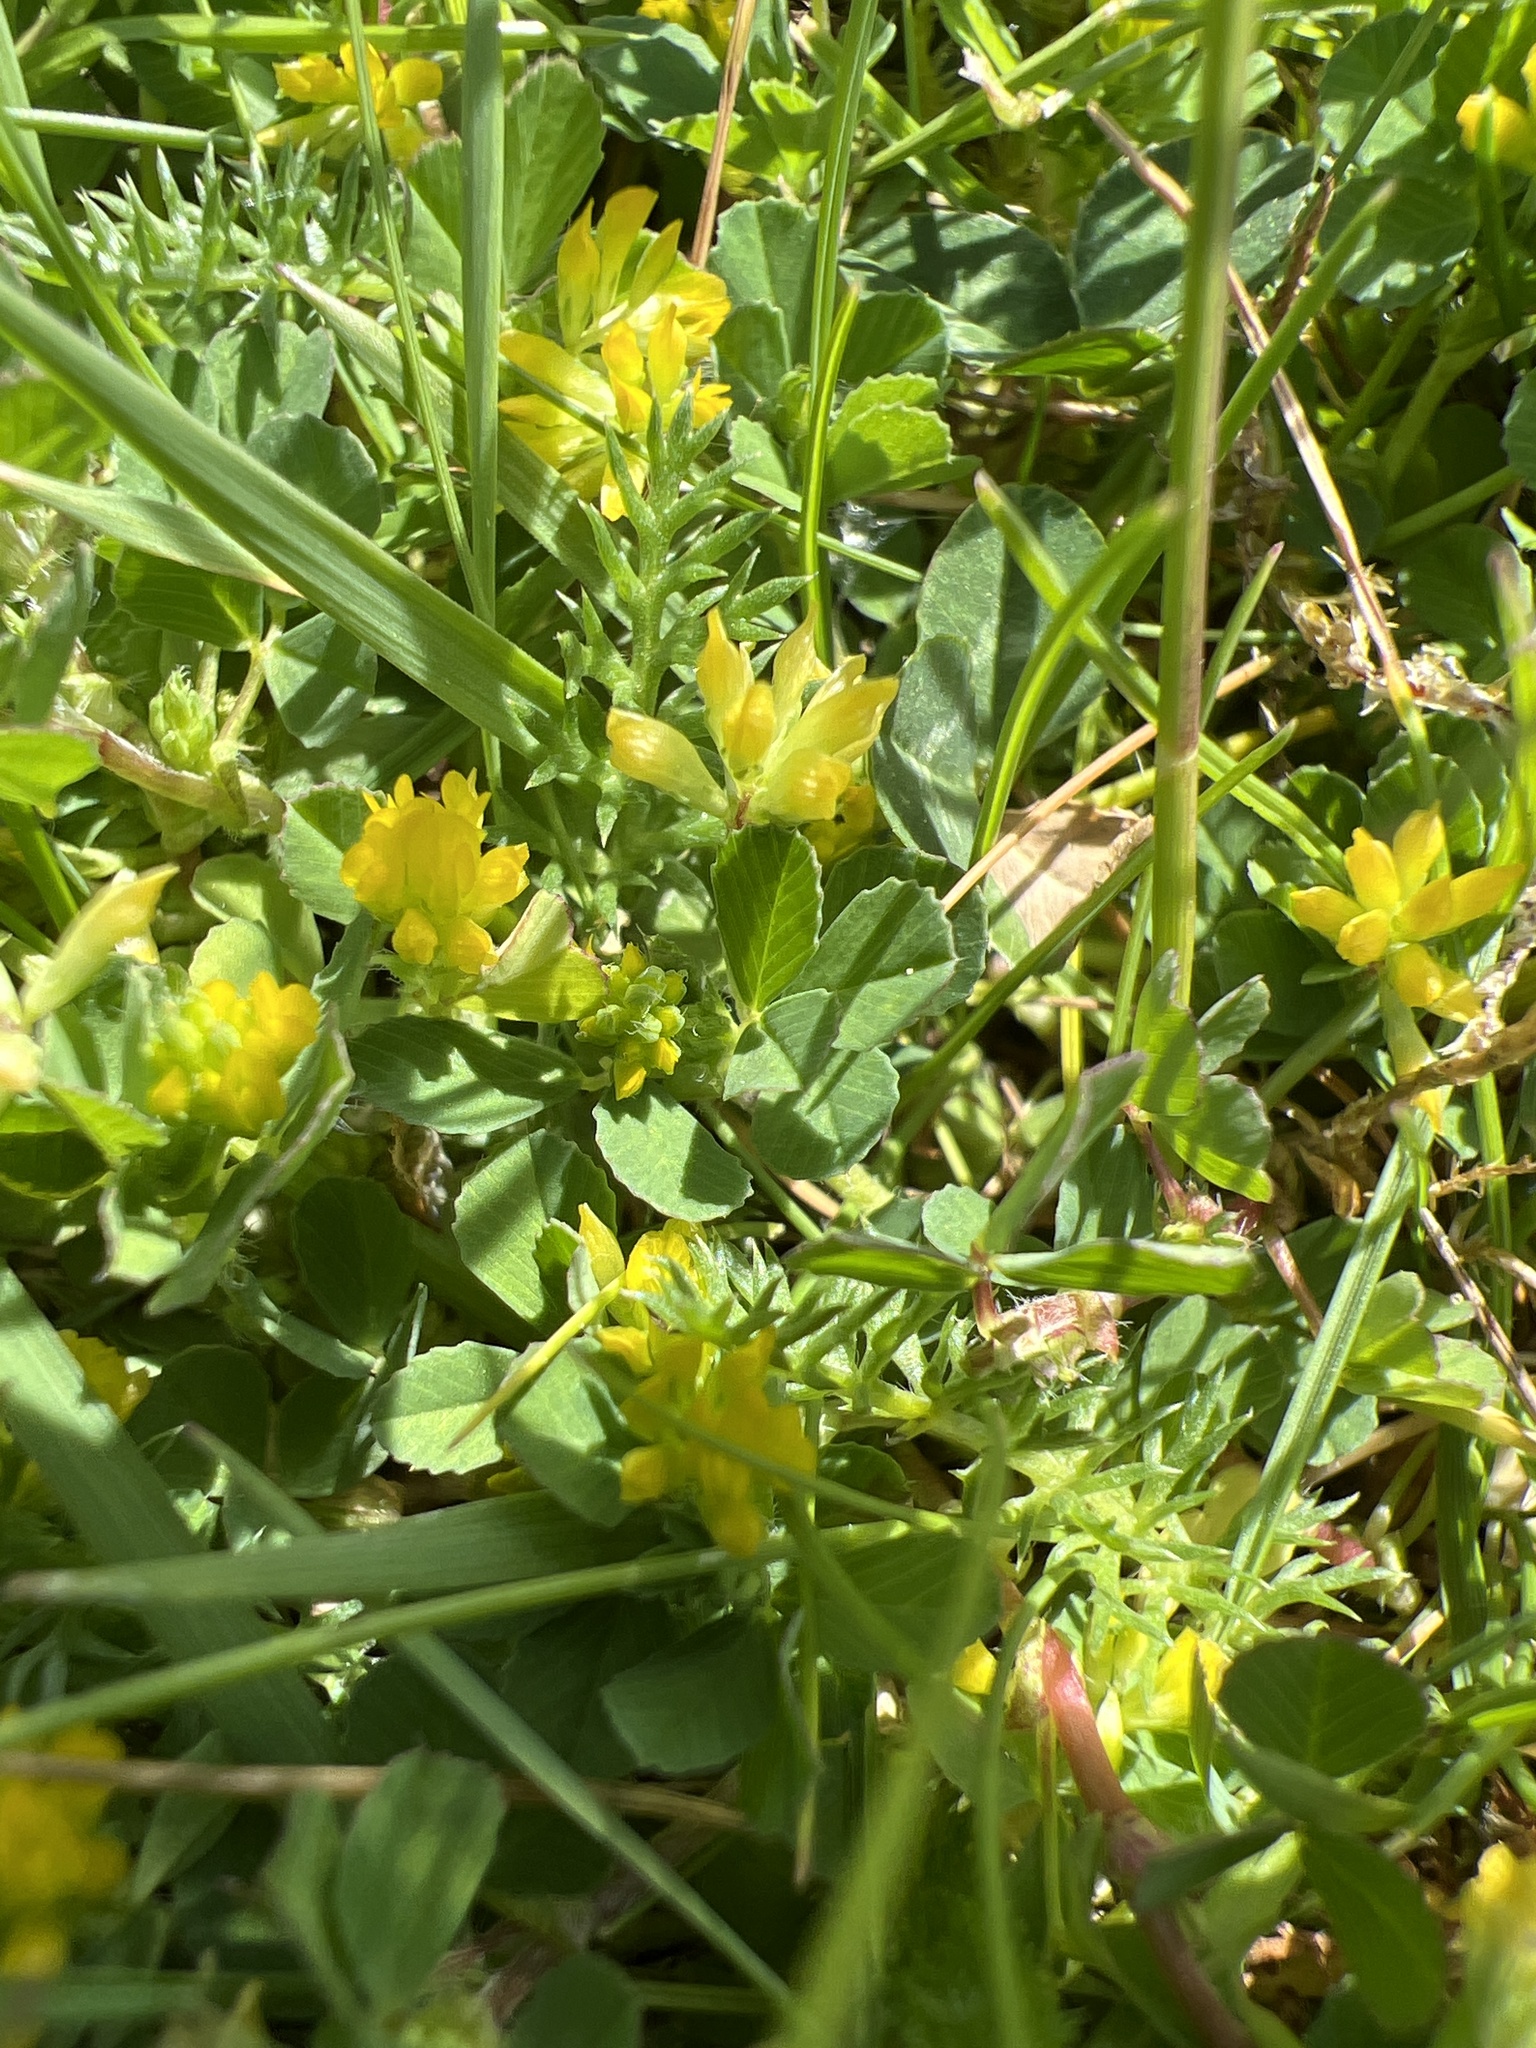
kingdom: Plantae
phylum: Tracheophyta
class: Magnoliopsida
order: Fabales
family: Fabaceae
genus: Trifolium
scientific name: Trifolium dubium
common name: Suckling clover
